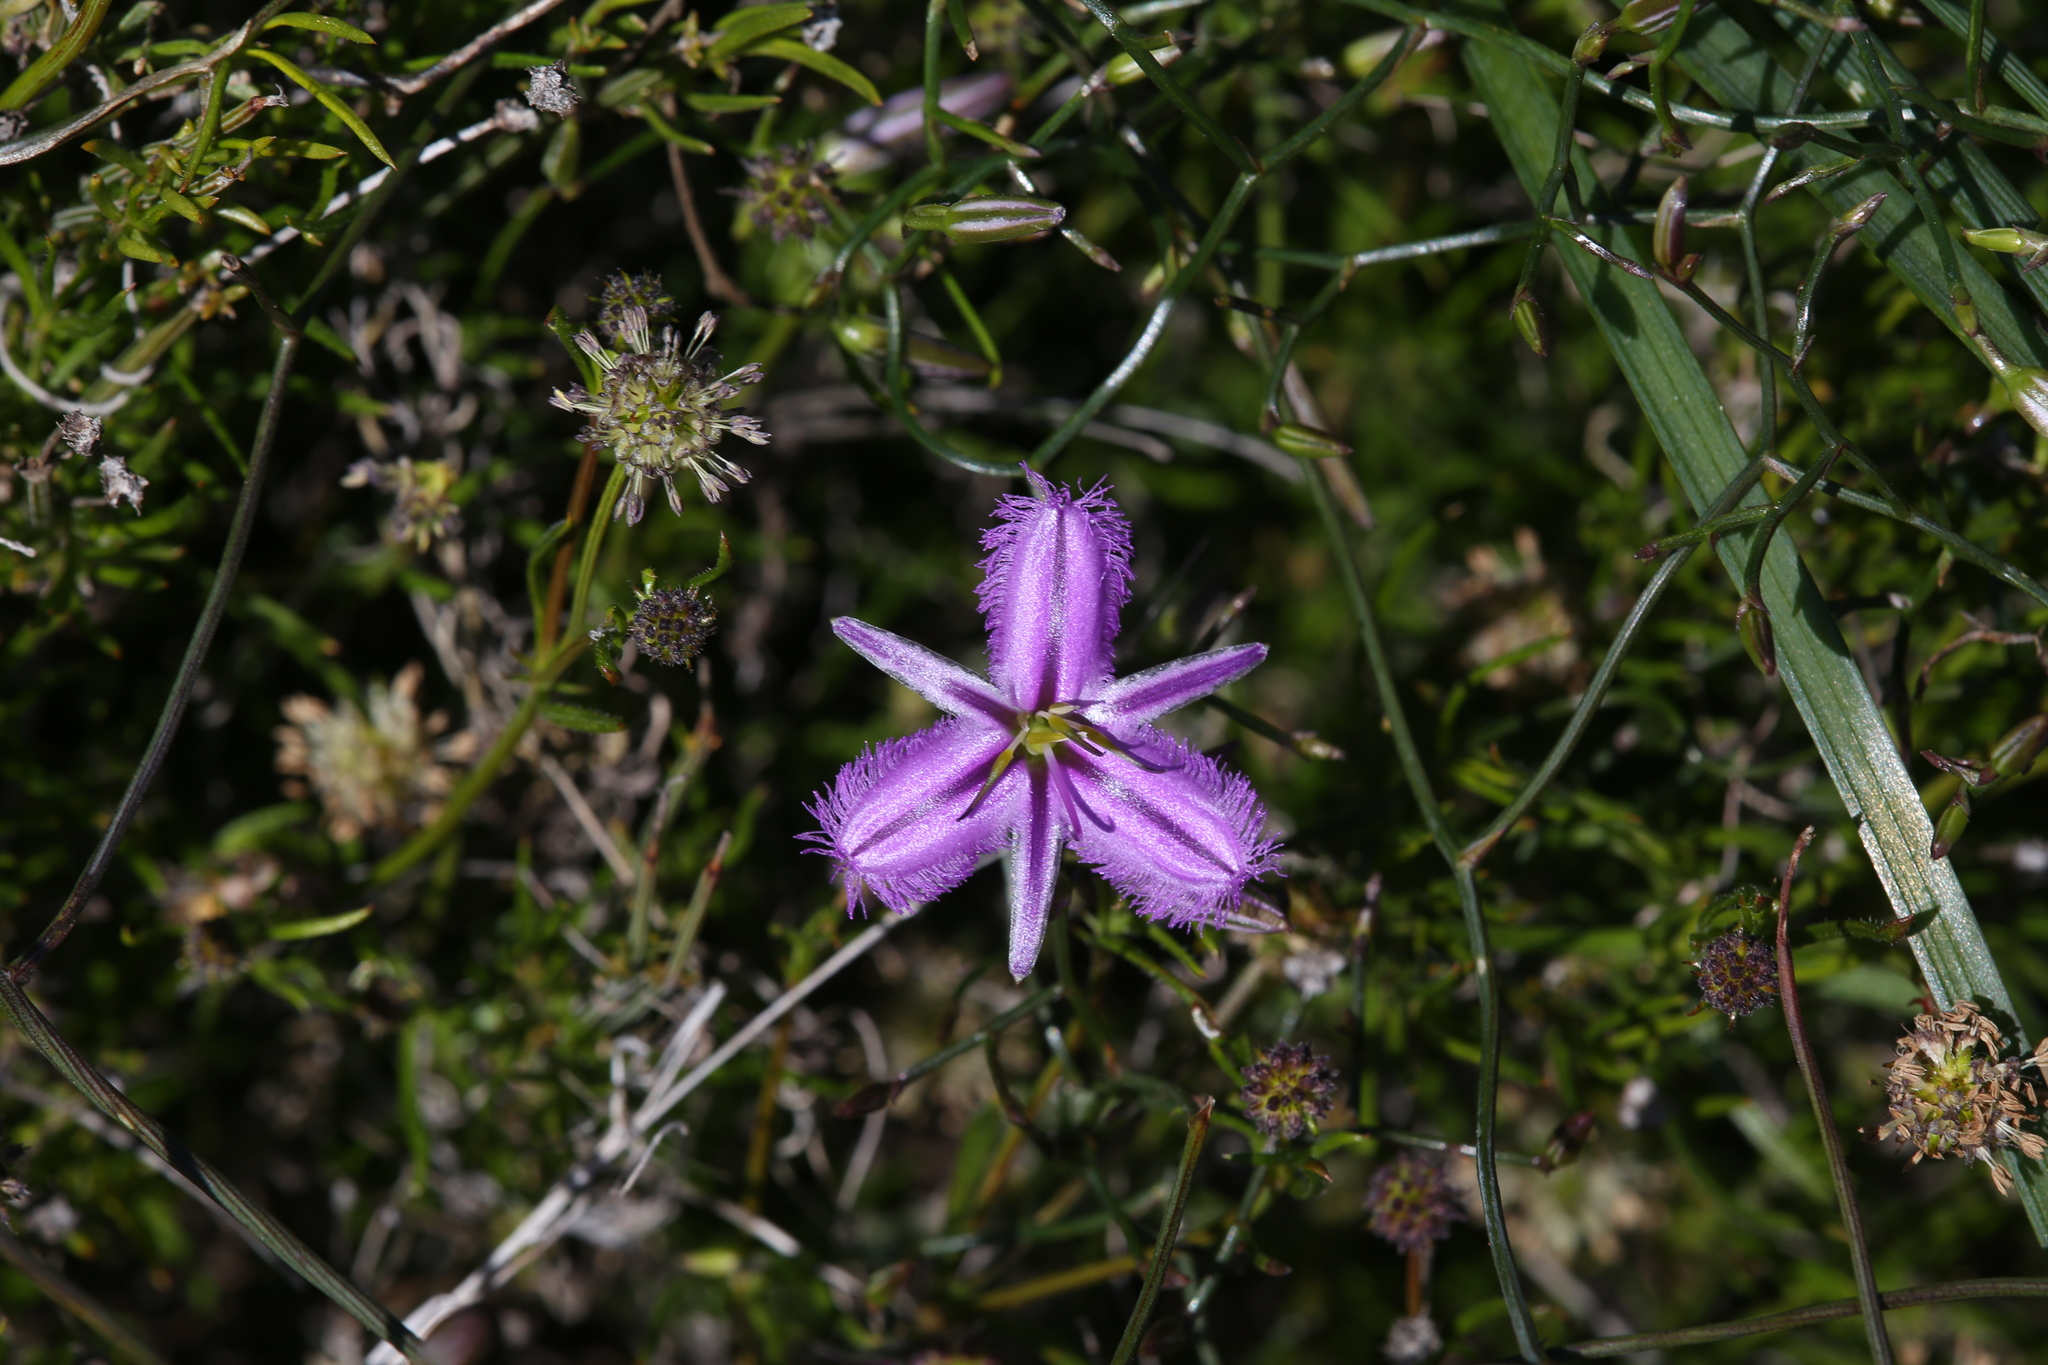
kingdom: Plantae
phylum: Tracheophyta
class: Liliopsida
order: Asparagales
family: Asparagaceae
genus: Thysanotus
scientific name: Thysanotus manglesianus
